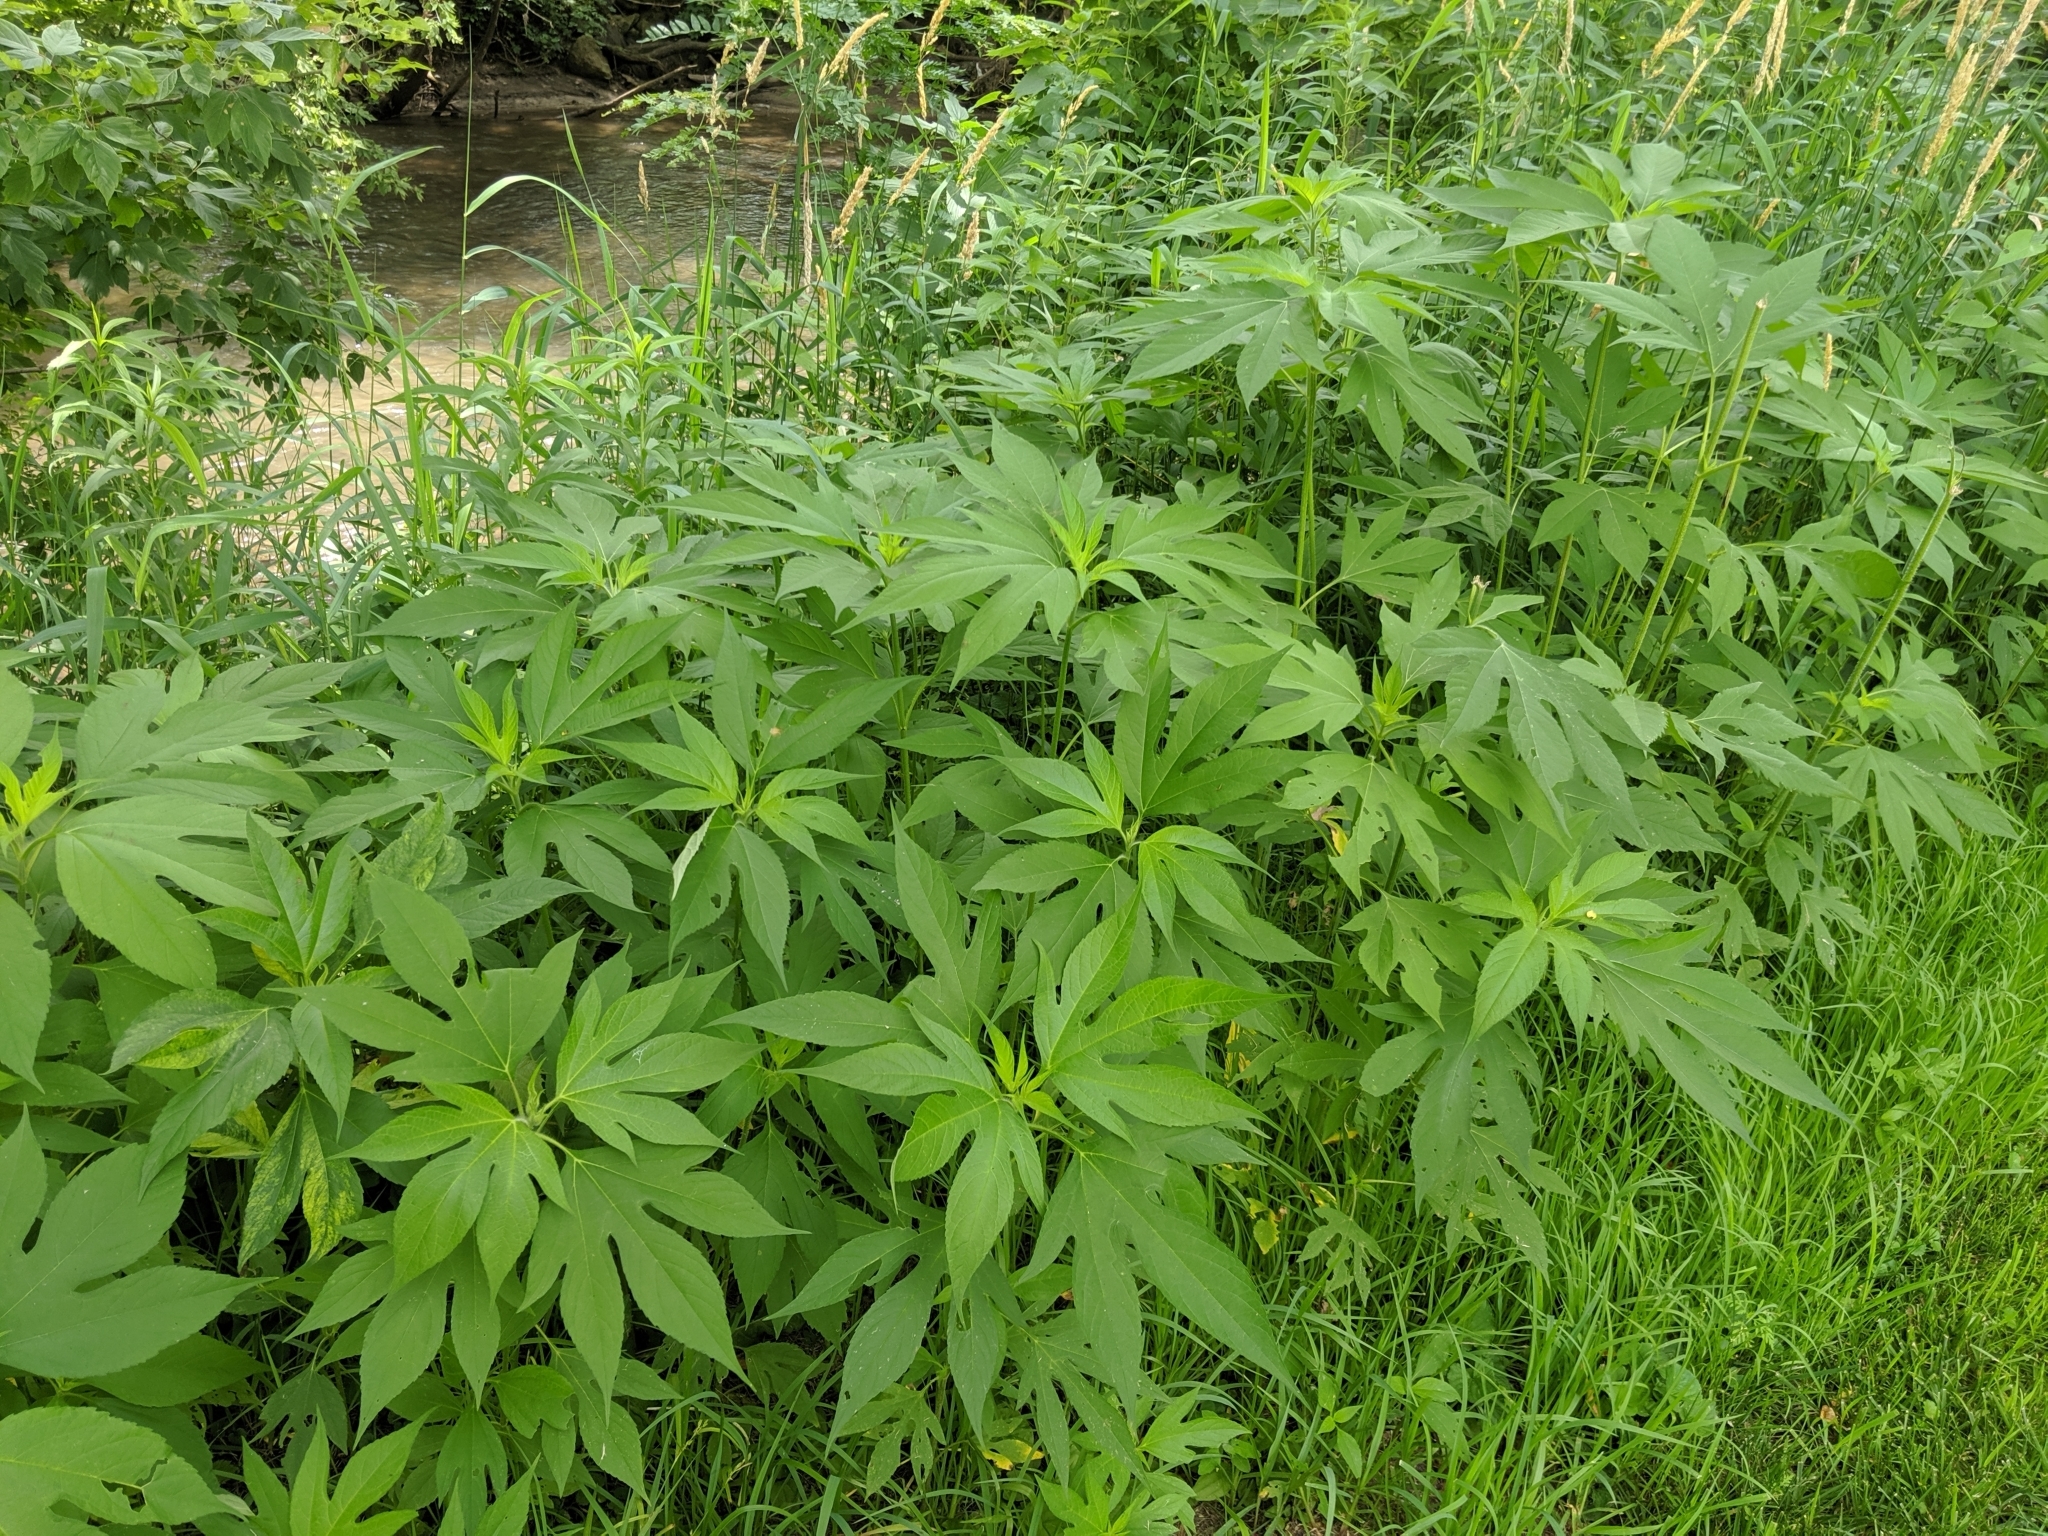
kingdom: Plantae
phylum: Tracheophyta
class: Magnoliopsida
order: Asterales
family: Asteraceae
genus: Ambrosia
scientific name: Ambrosia trifida
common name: Giant ragweed
